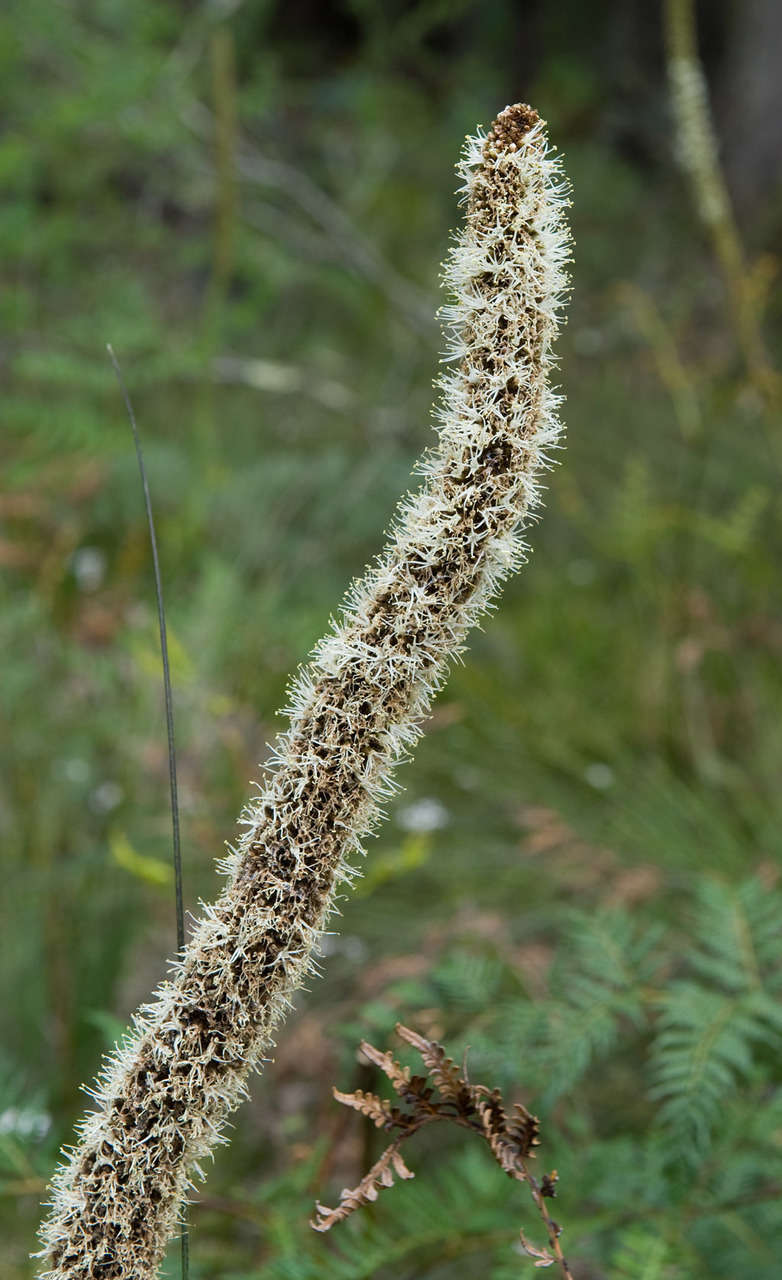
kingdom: Plantae
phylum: Tracheophyta
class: Liliopsida
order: Asparagales
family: Asphodelaceae
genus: Xanthorrhoea
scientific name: Xanthorrhoea minor
